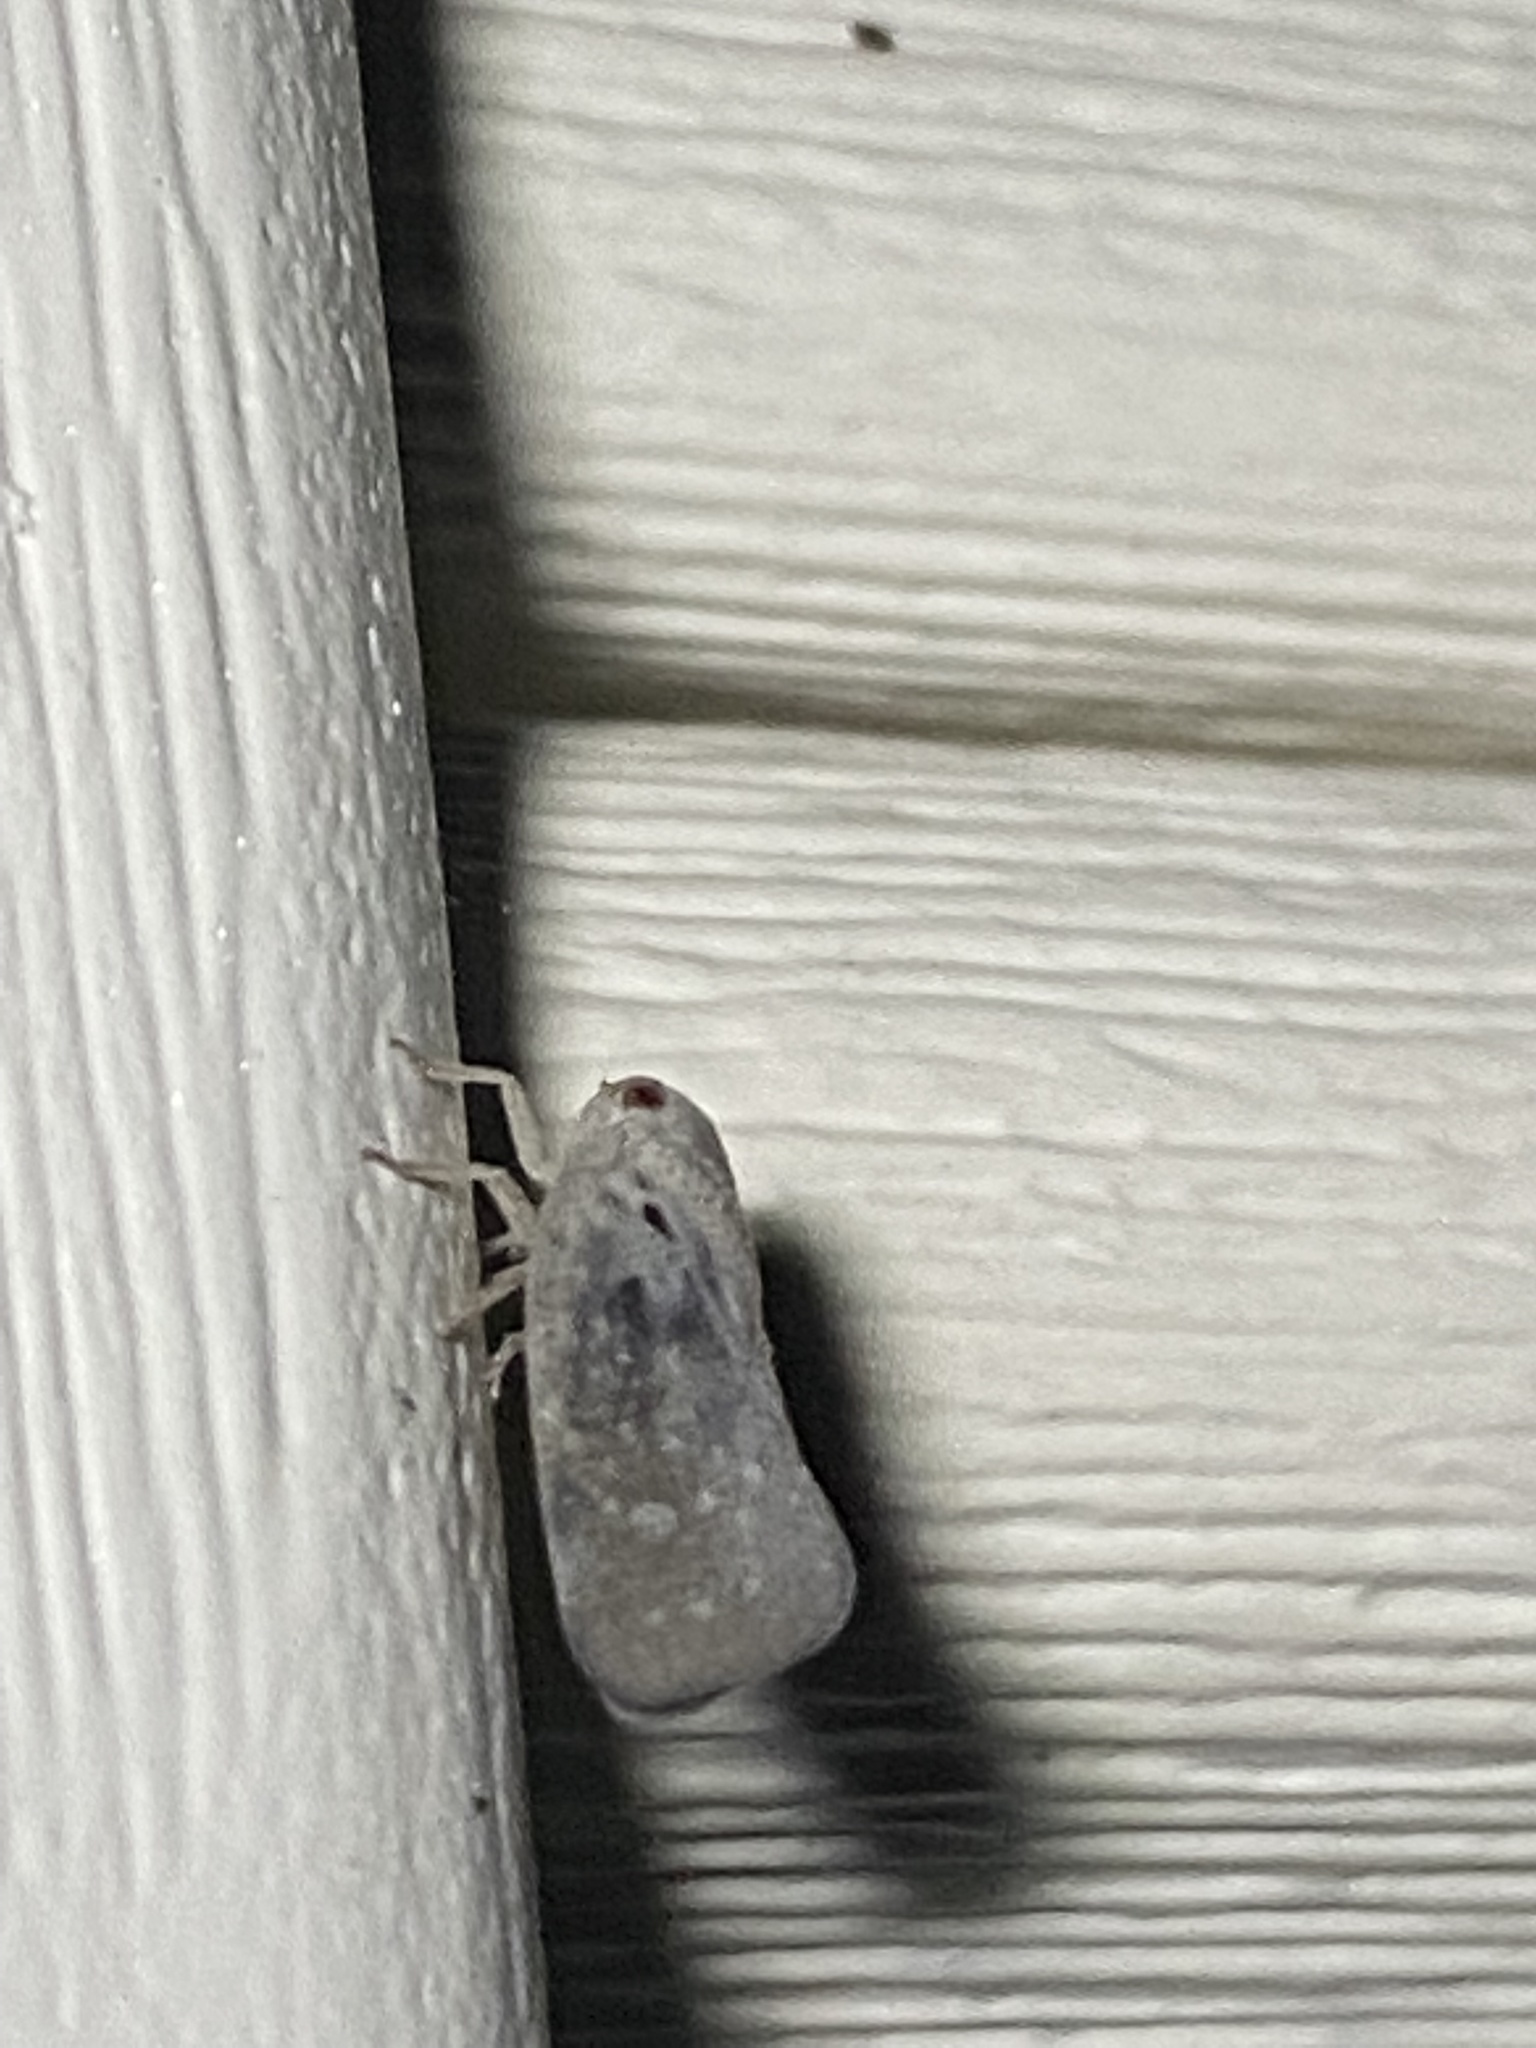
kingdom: Animalia
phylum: Arthropoda
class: Insecta
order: Hemiptera
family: Flatidae
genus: Metcalfa
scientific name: Metcalfa pruinosa
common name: Citrus flatid planthopper
